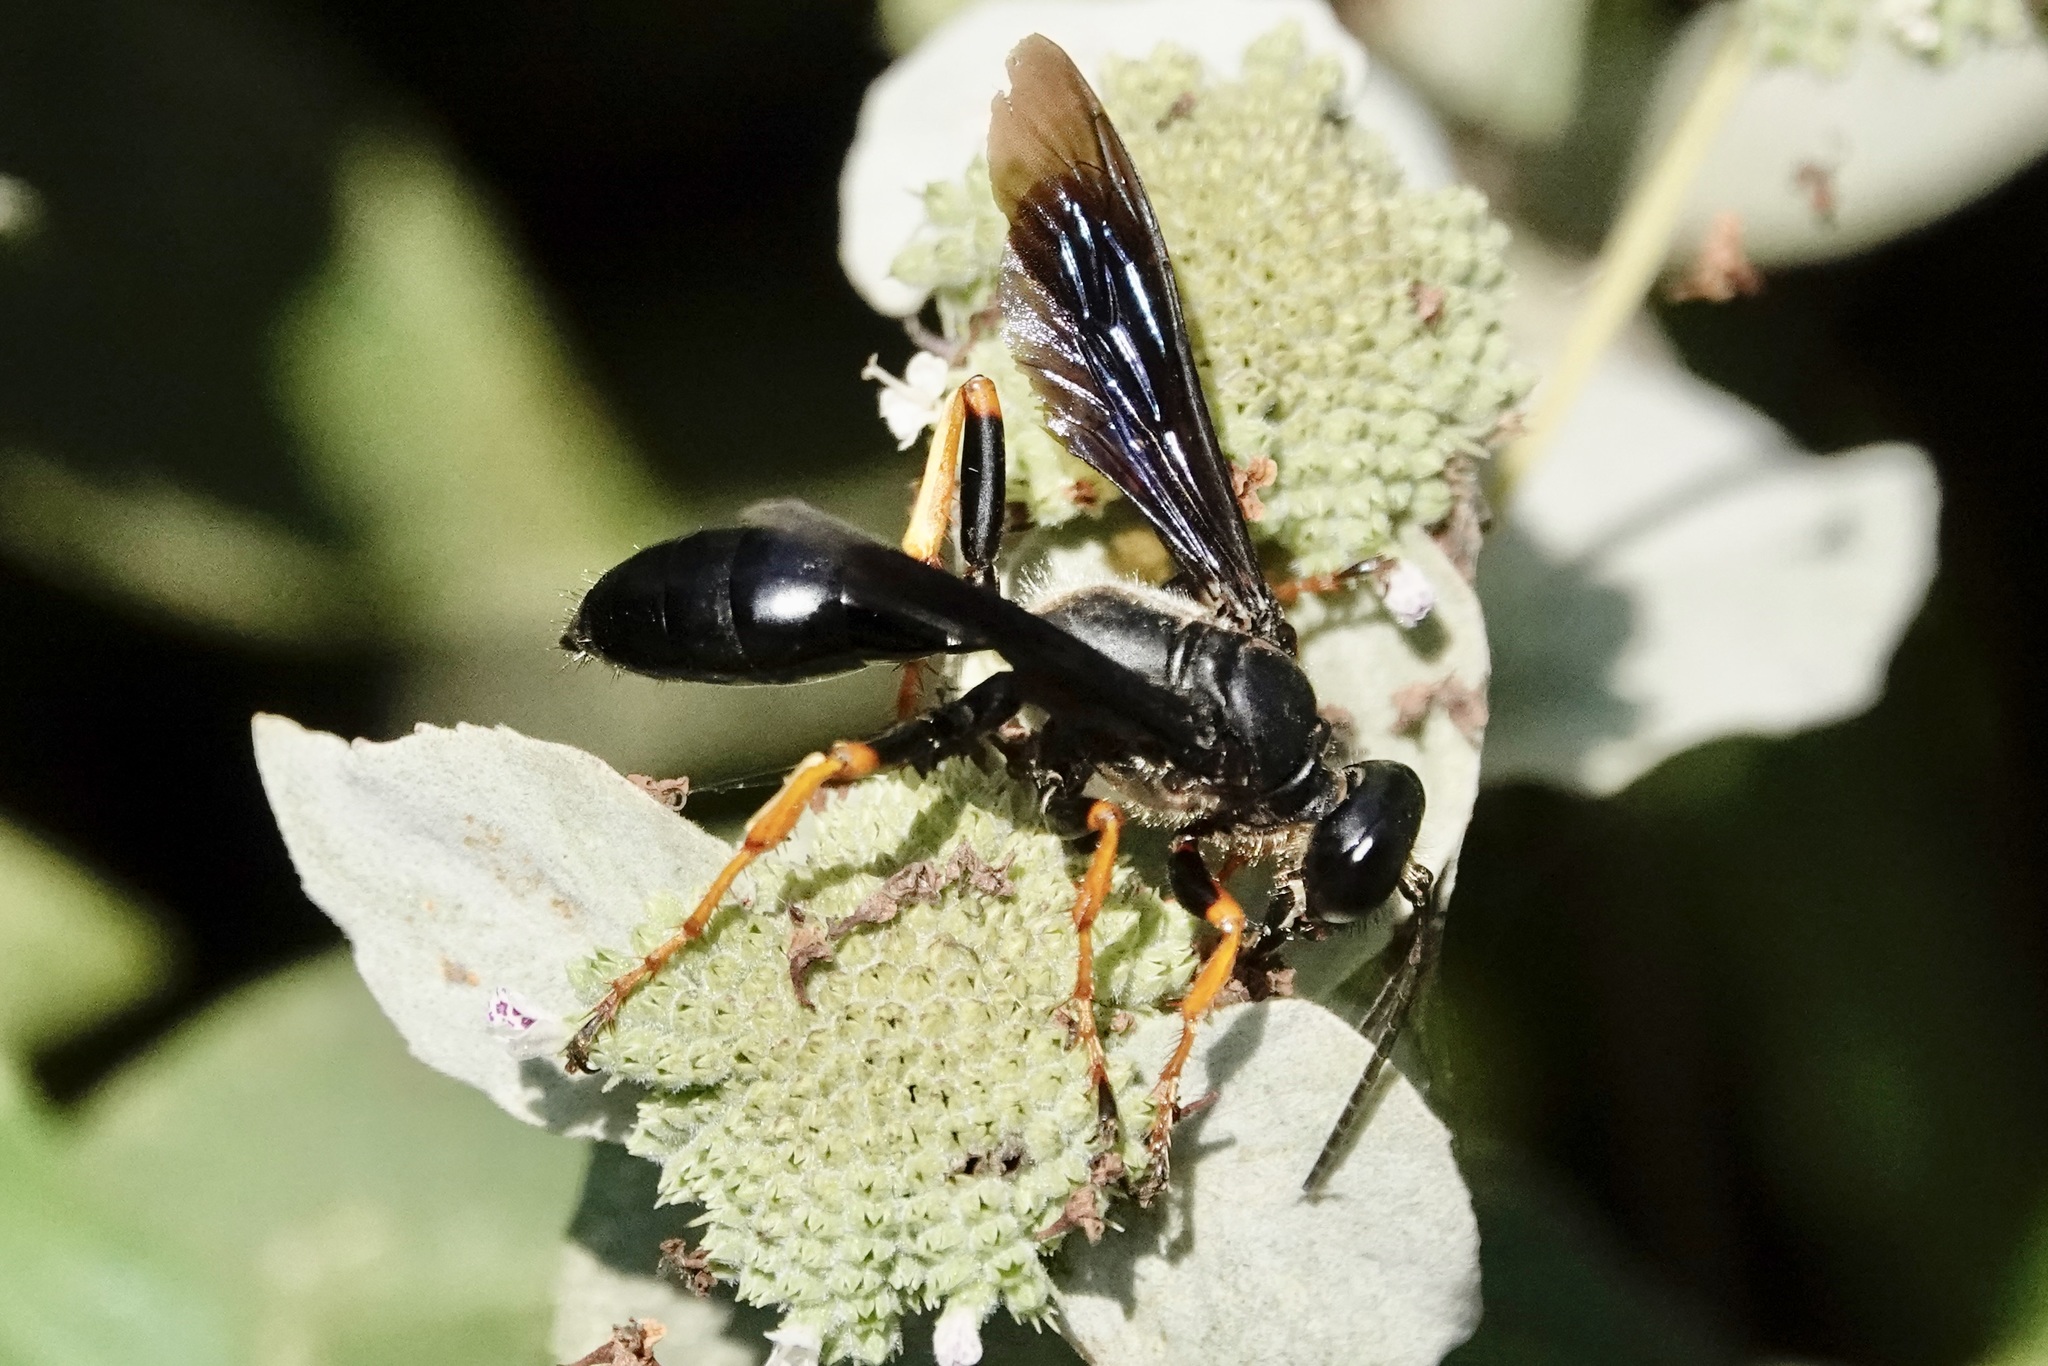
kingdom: Animalia
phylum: Arthropoda
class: Insecta
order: Hymenoptera
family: Sphecidae
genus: Sphex
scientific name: Sphex nudus
